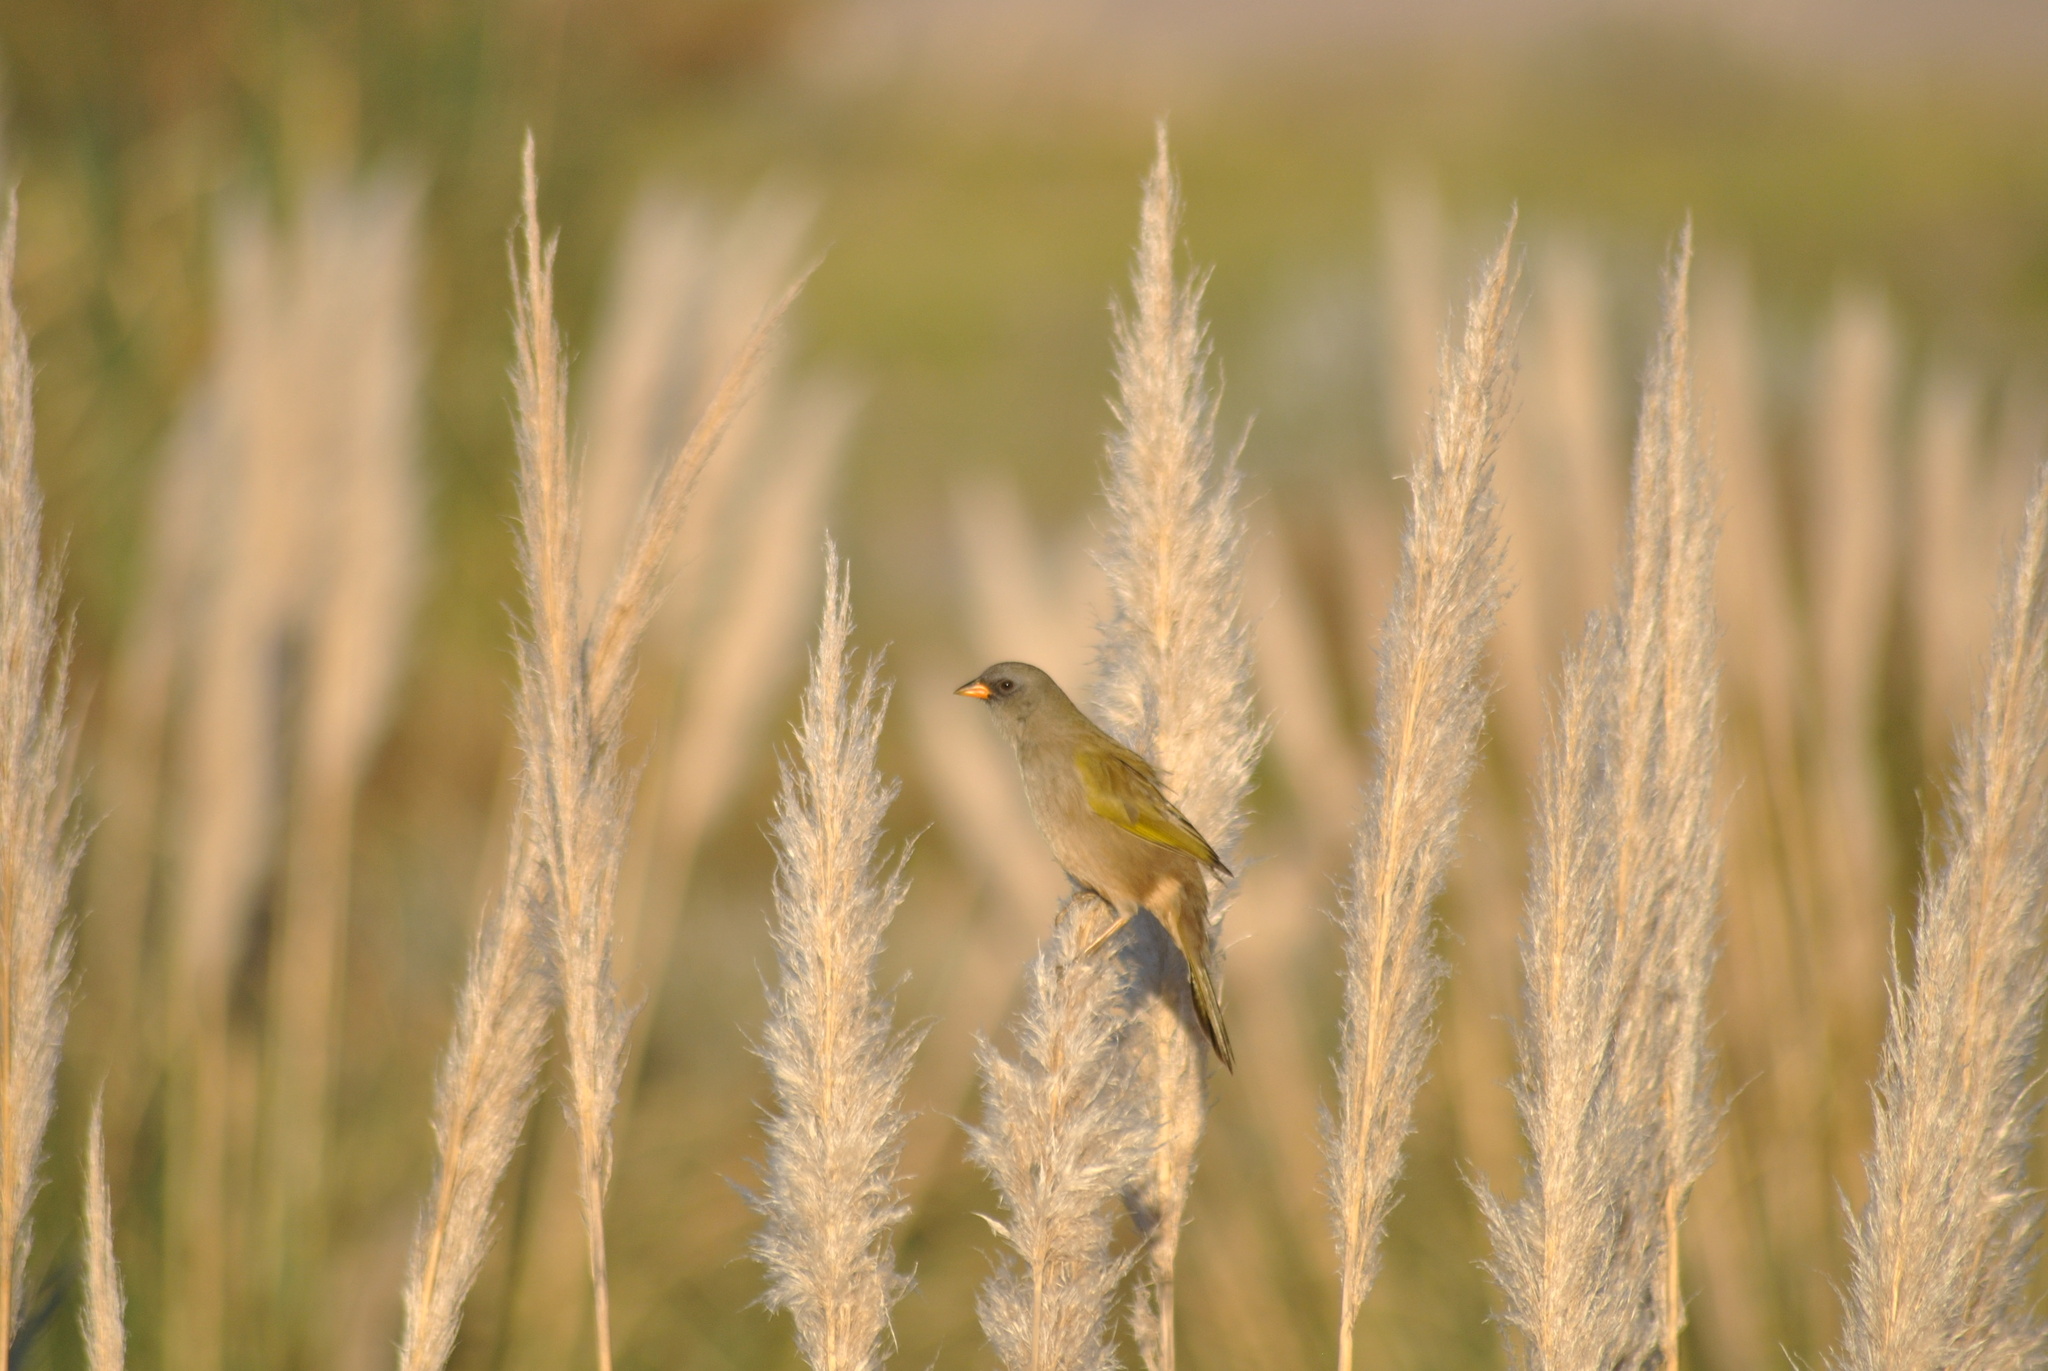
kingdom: Animalia
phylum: Chordata
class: Aves
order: Passeriformes
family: Thraupidae
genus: Embernagra
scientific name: Embernagra platensis
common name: Pampa finch
